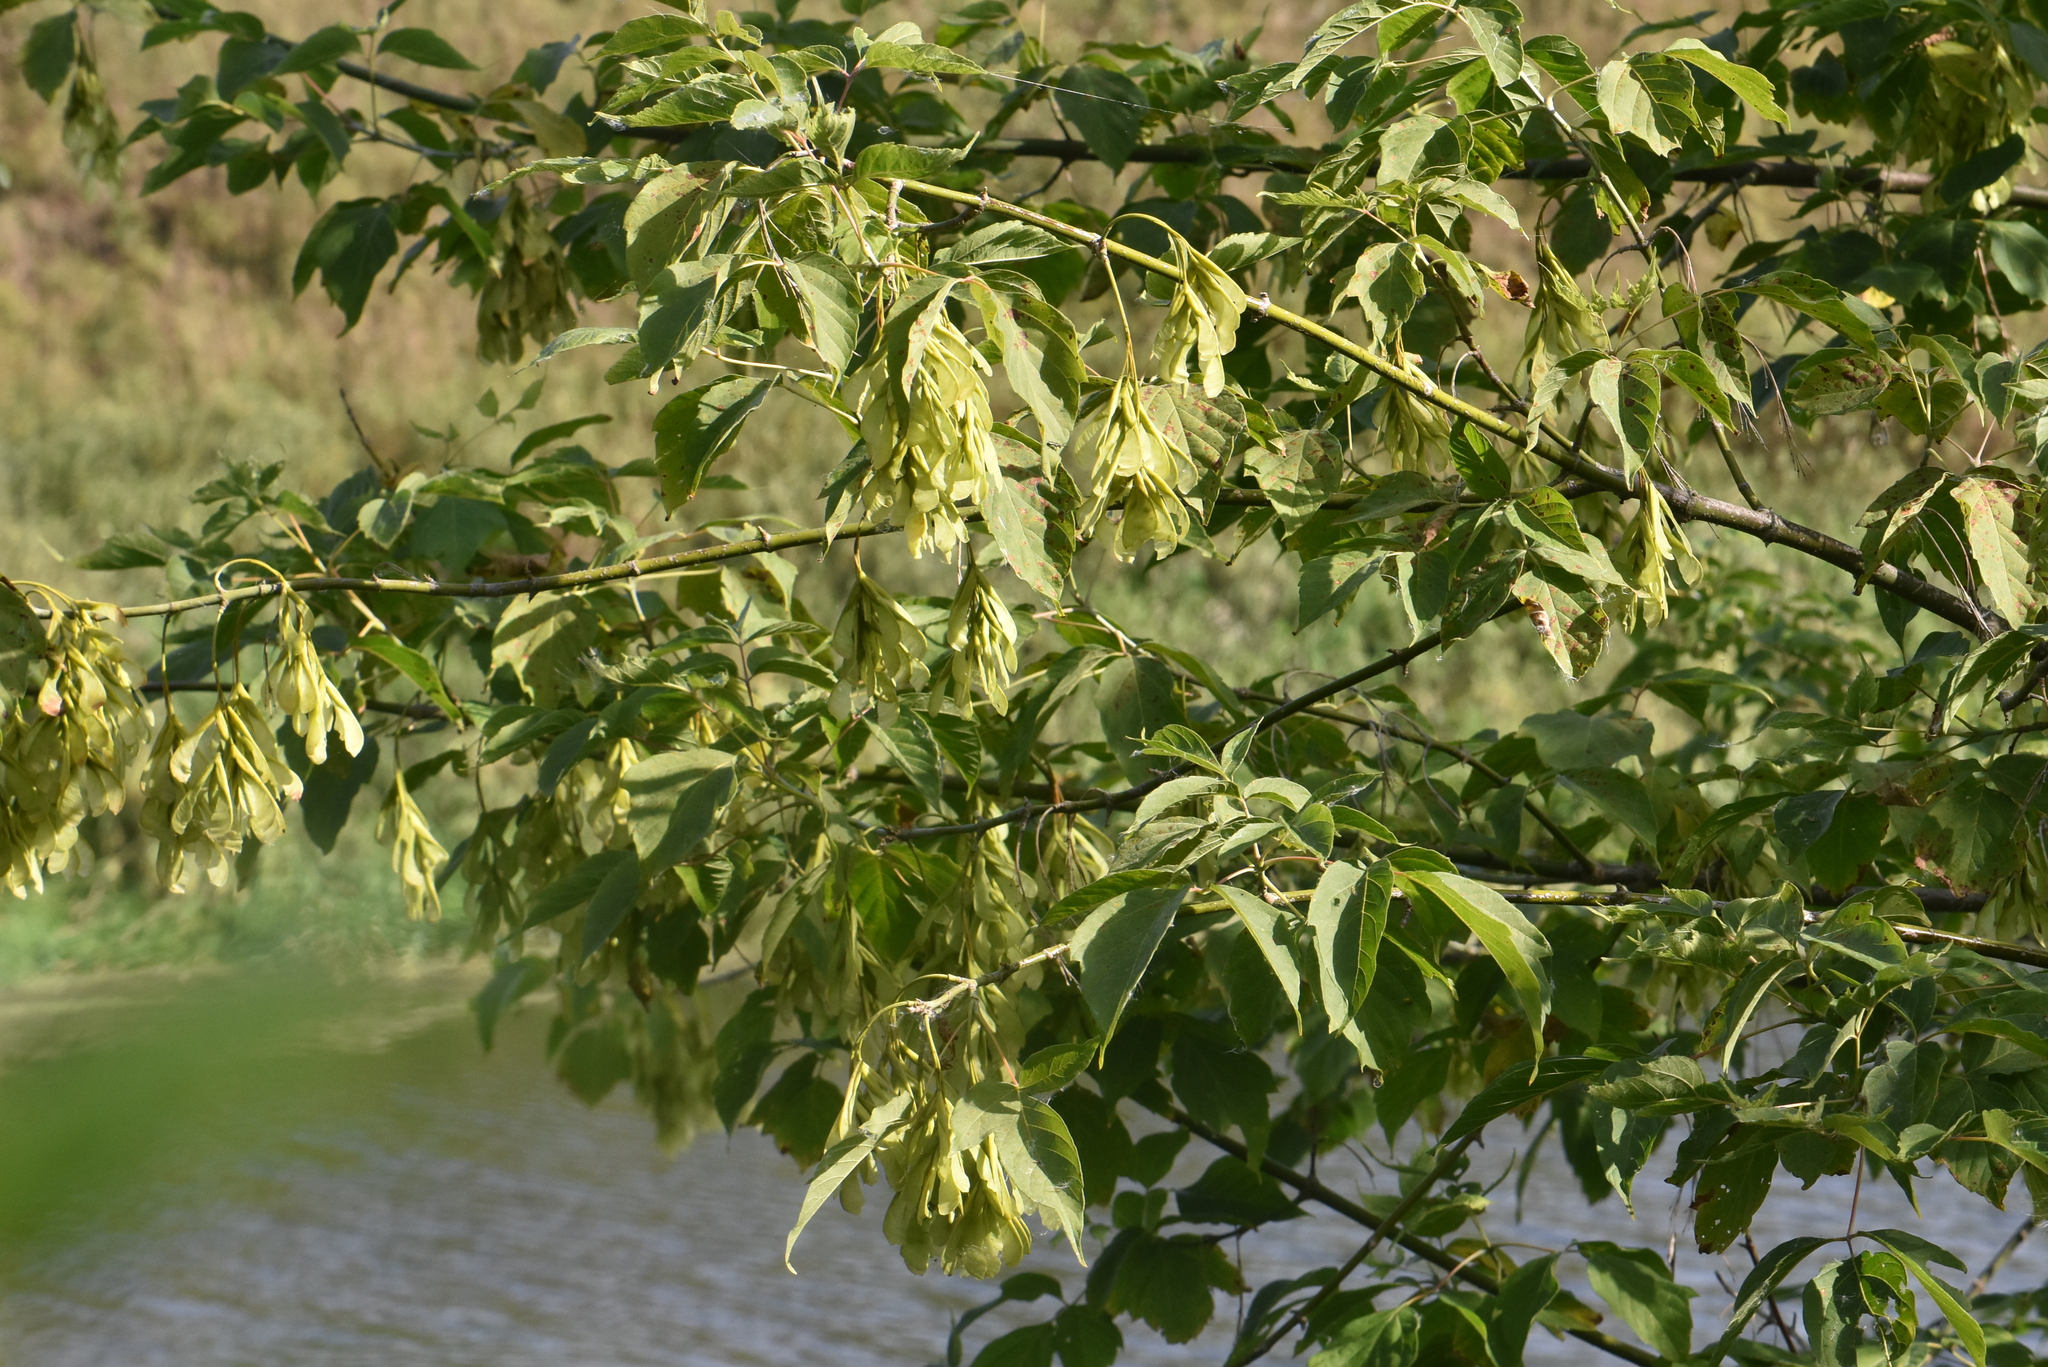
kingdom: Plantae
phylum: Tracheophyta
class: Magnoliopsida
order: Sapindales
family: Sapindaceae
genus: Acer
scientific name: Acer negundo
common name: Ashleaf maple
